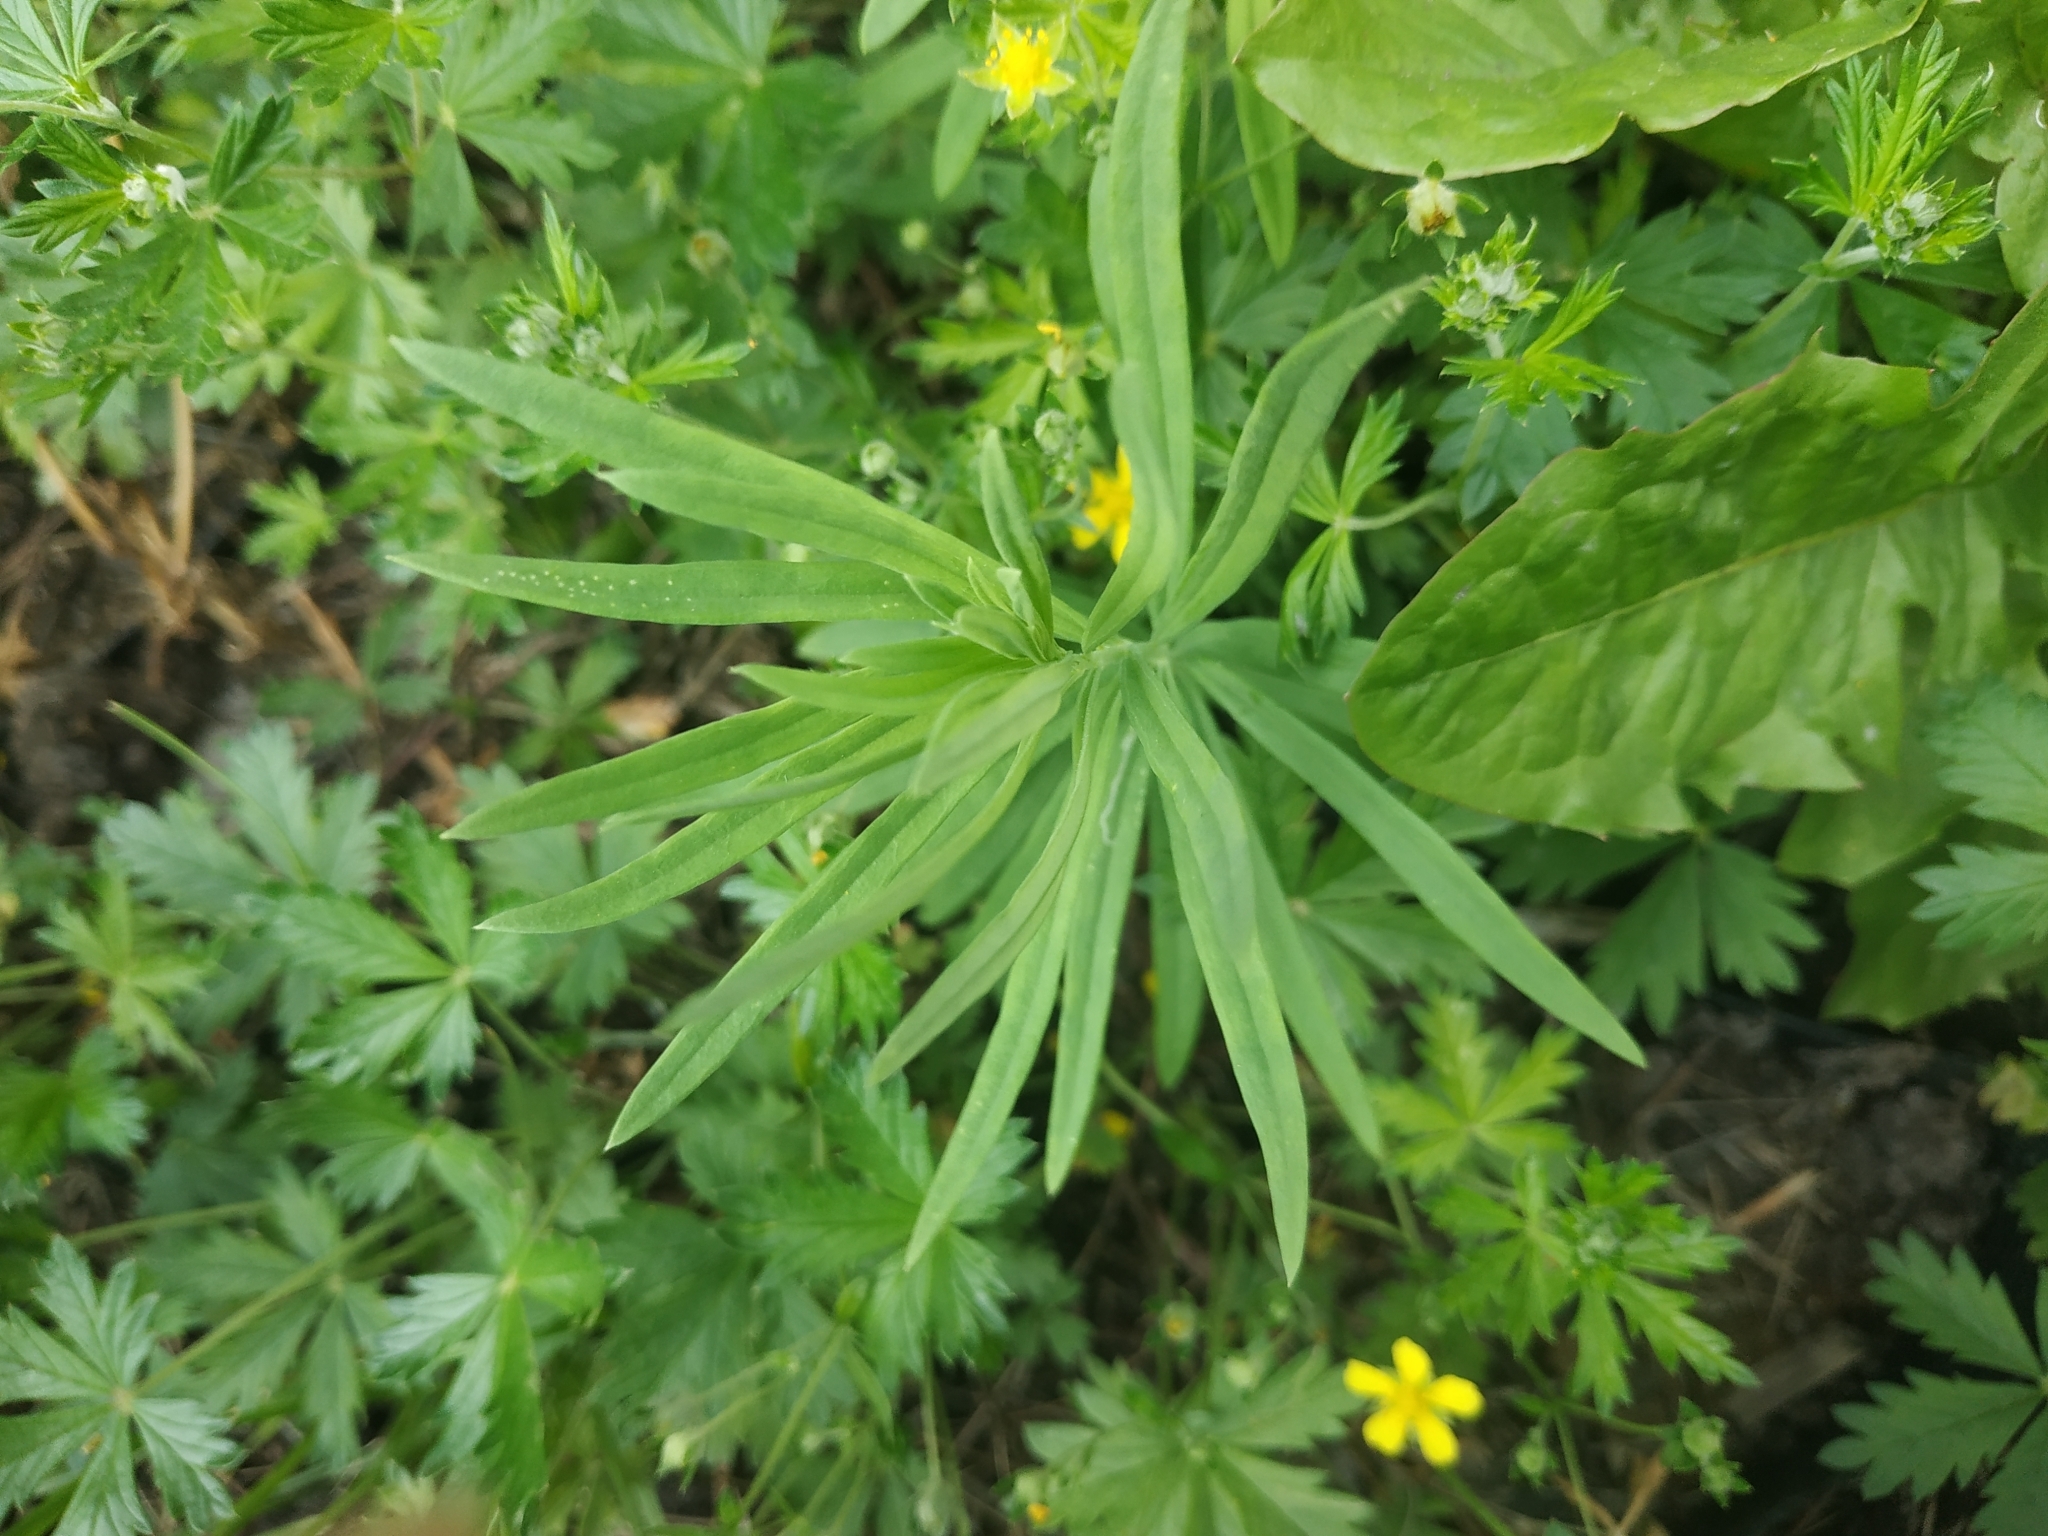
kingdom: Plantae
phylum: Tracheophyta
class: Magnoliopsida
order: Lamiales
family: Plantaginaceae
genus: Linaria
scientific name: Linaria vulgaris
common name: Butter and eggs
